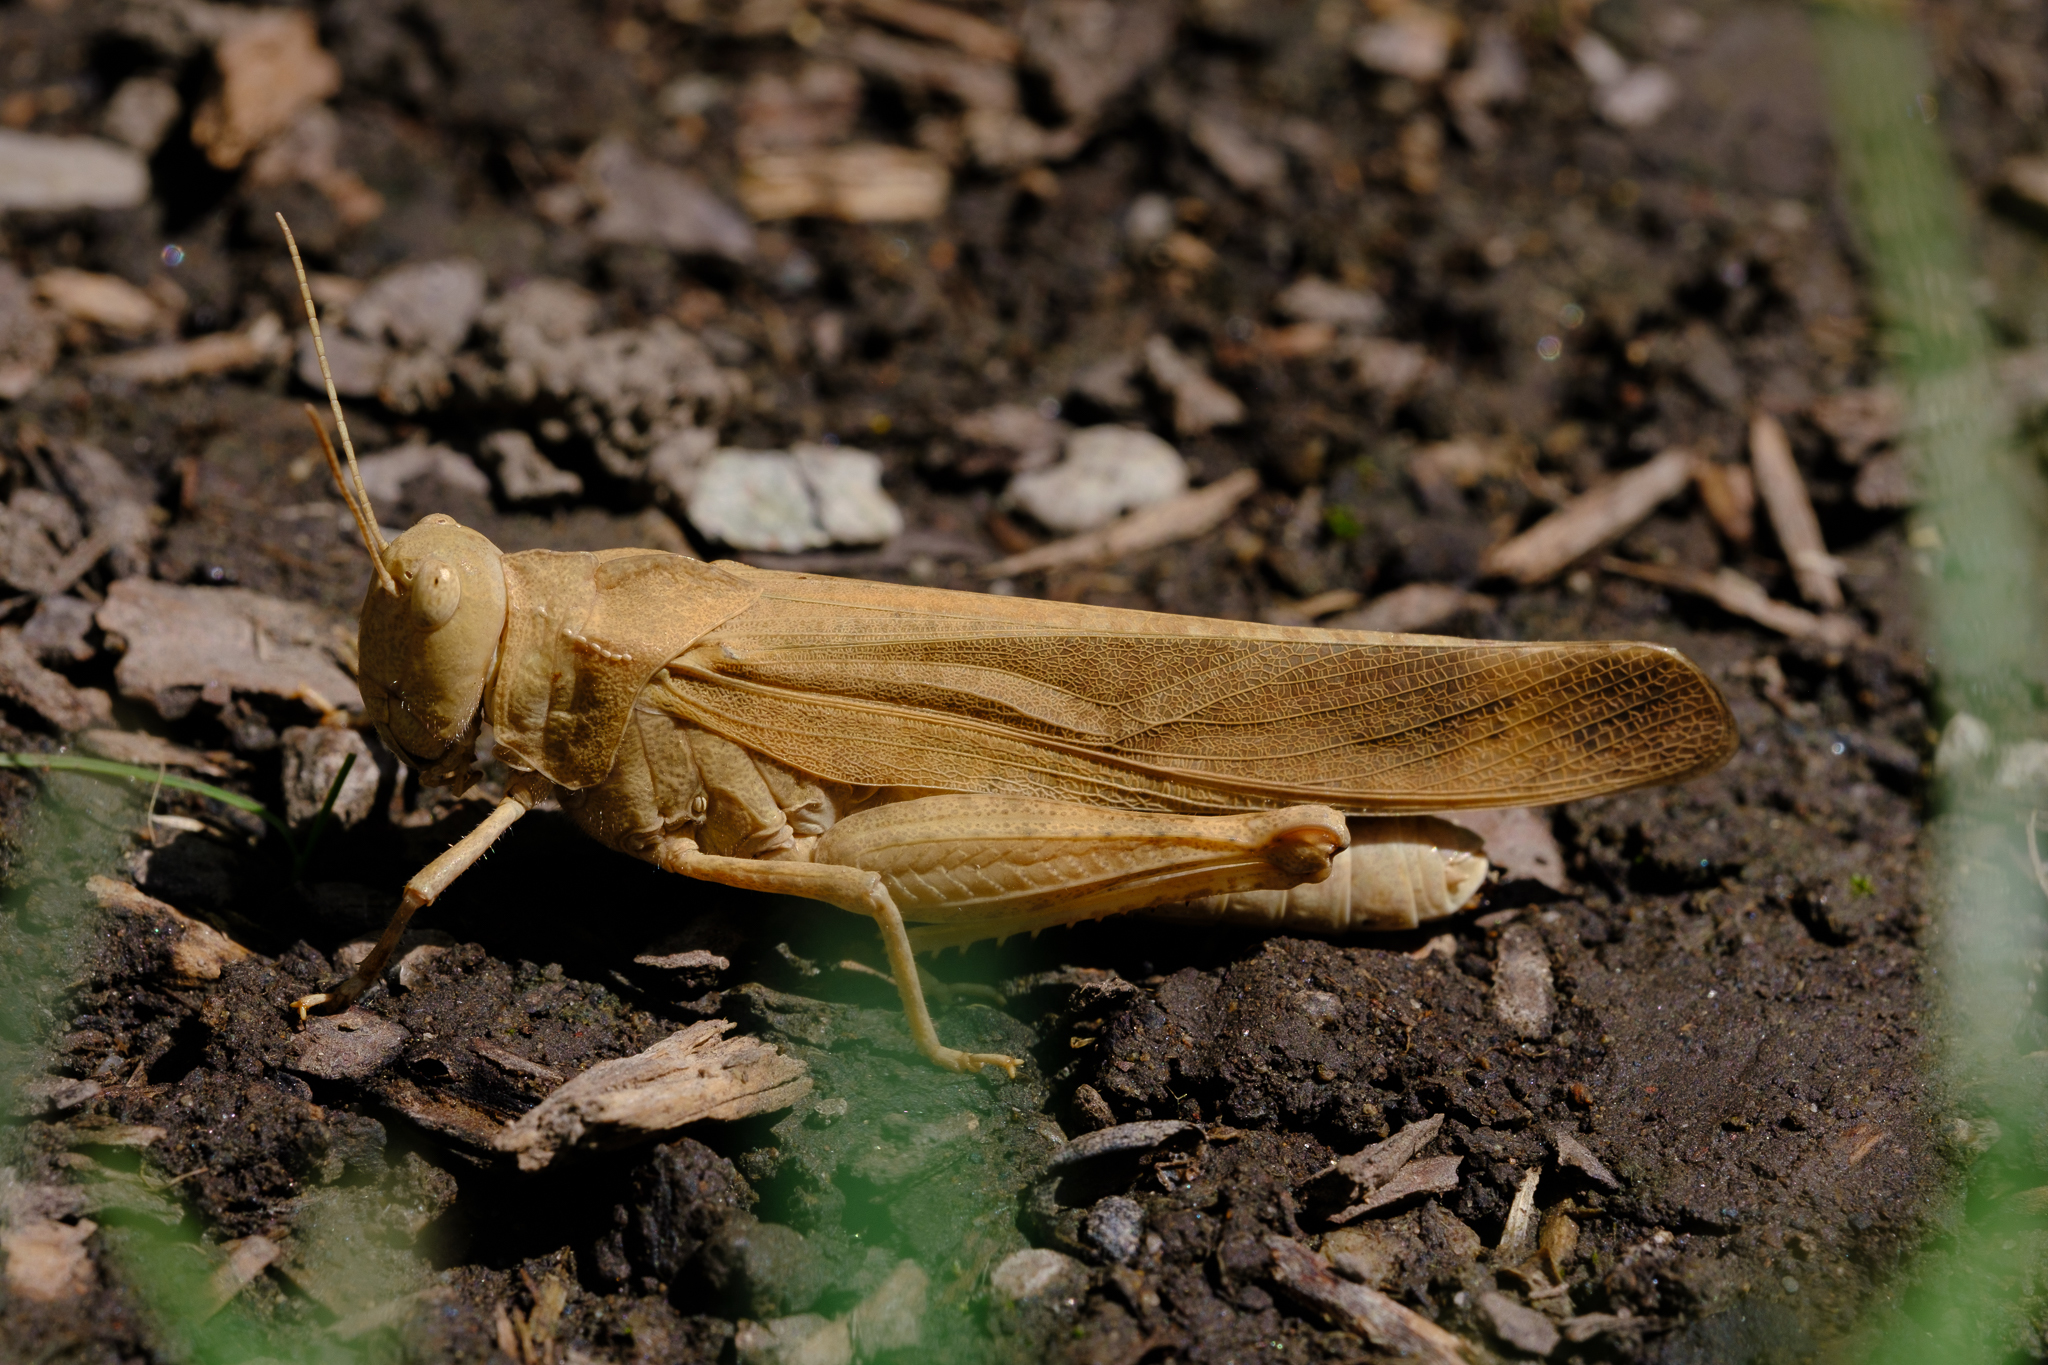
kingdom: Animalia
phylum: Arthropoda
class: Insecta
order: Orthoptera
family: Acrididae
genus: Dissosteira
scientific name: Dissosteira carolina
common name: Carolina grasshopper
